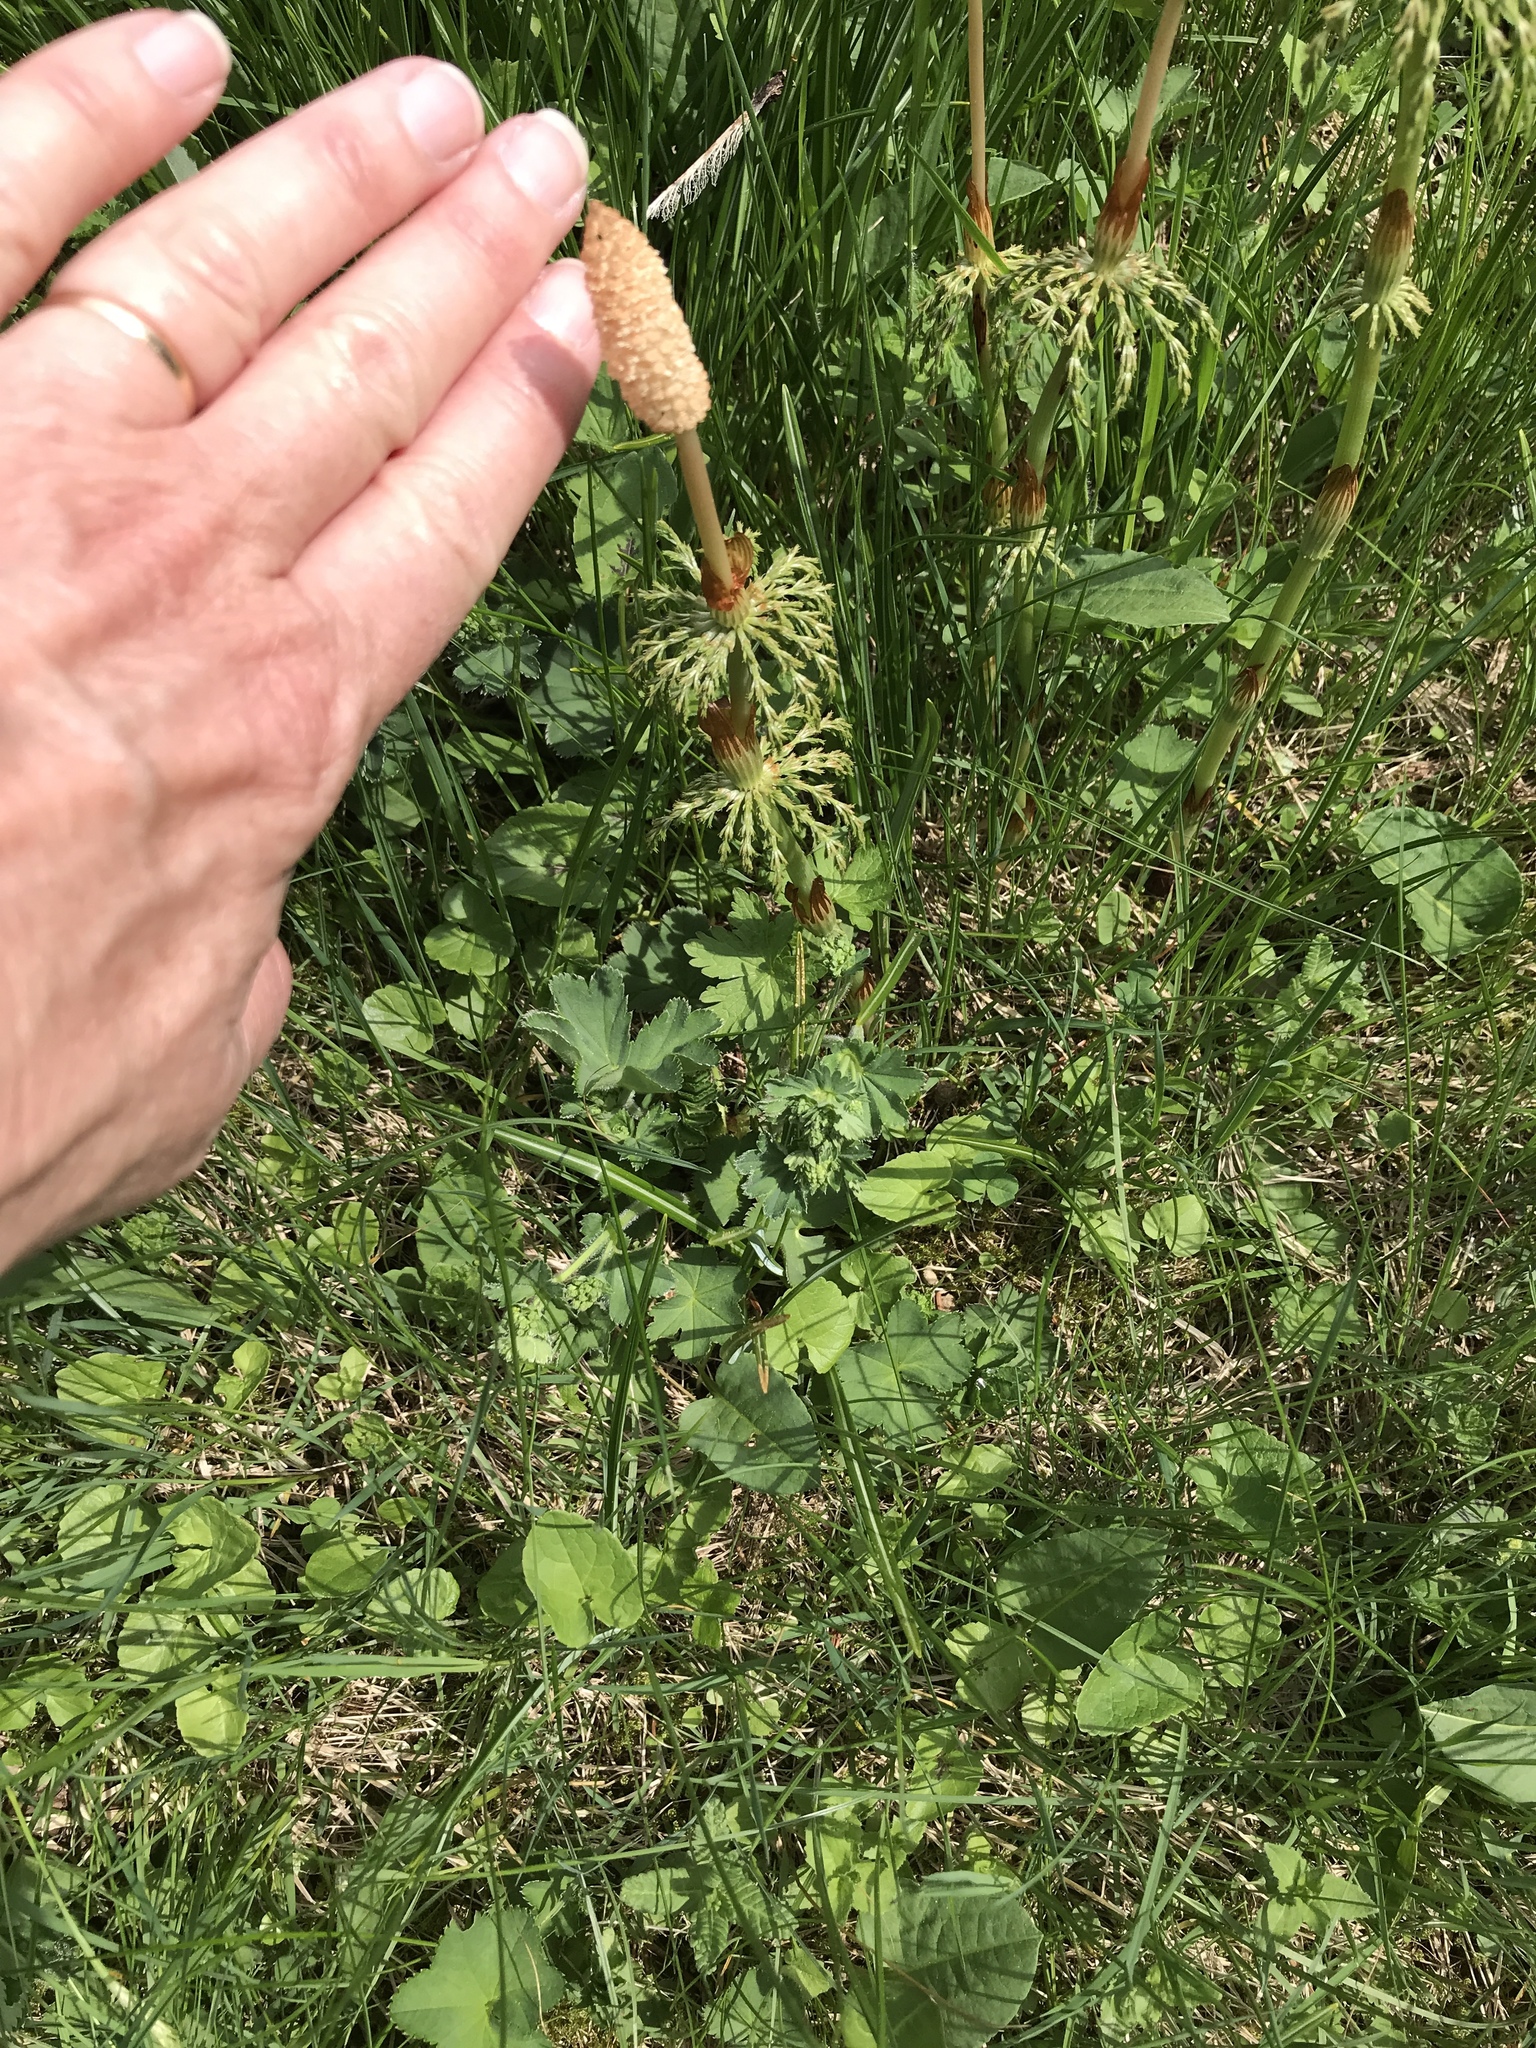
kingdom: Plantae
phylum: Tracheophyta
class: Polypodiopsida
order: Equisetales
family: Equisetaceae
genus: Equisetum
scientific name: Equisetum sylvaticum
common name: Wood horsetail
